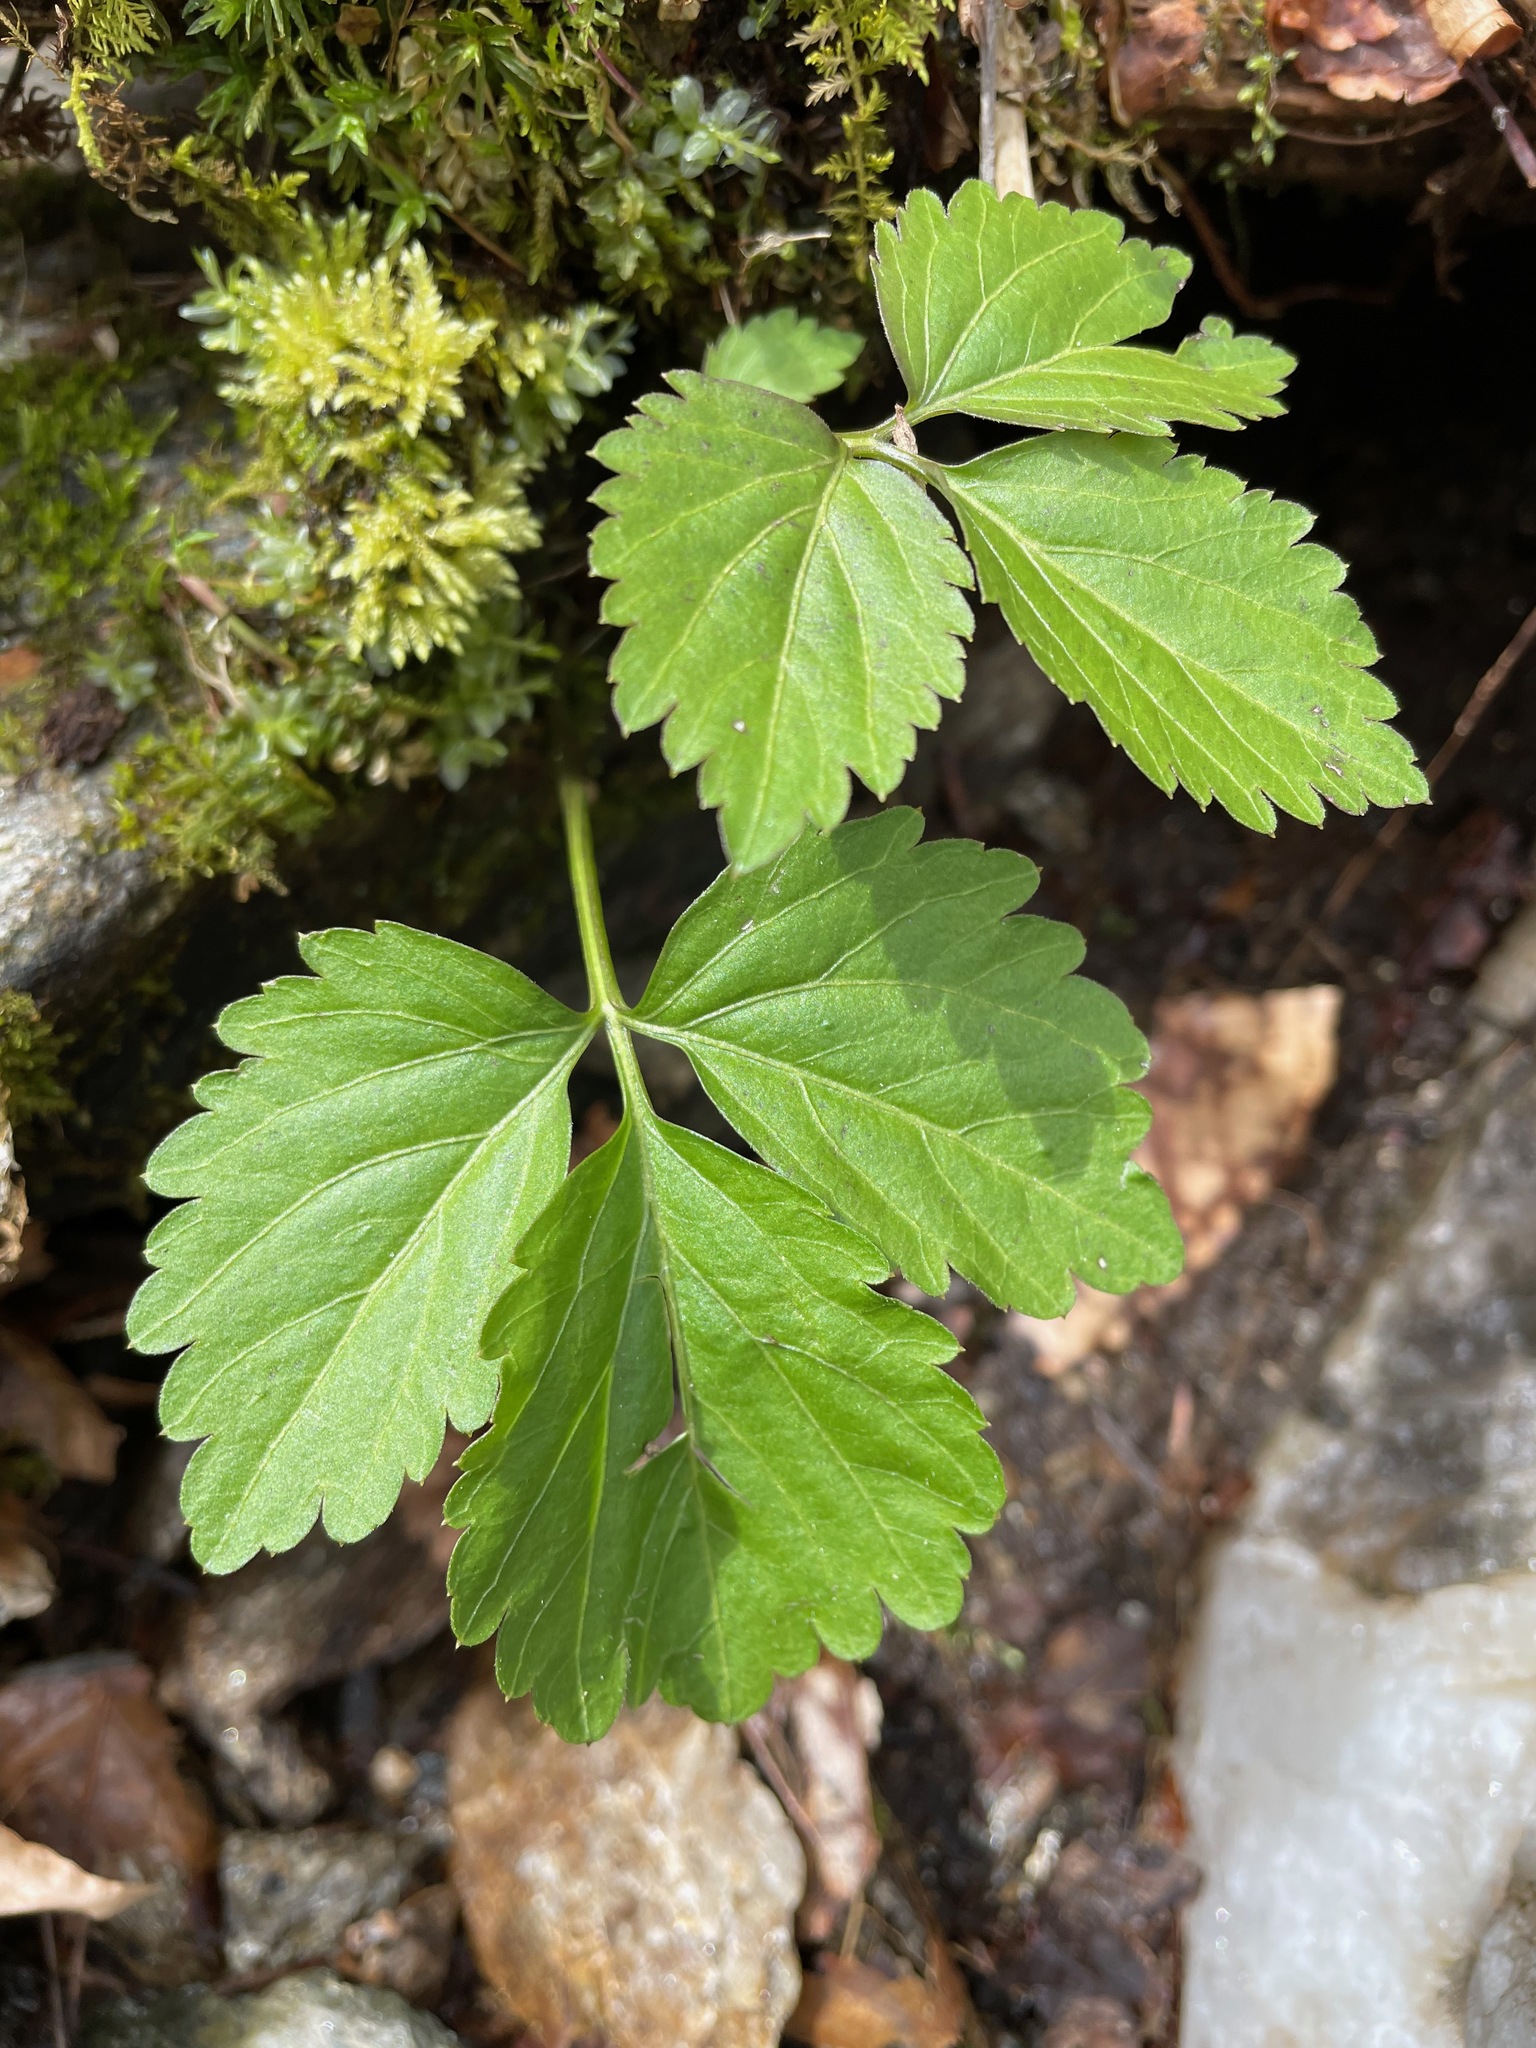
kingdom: Plantae
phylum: Tracheophyta
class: Magnoliopsida
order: Brassicales
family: Brassicaceae
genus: Cardamine
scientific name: Cardamine diphylla
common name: Broad-leaved toothwort
